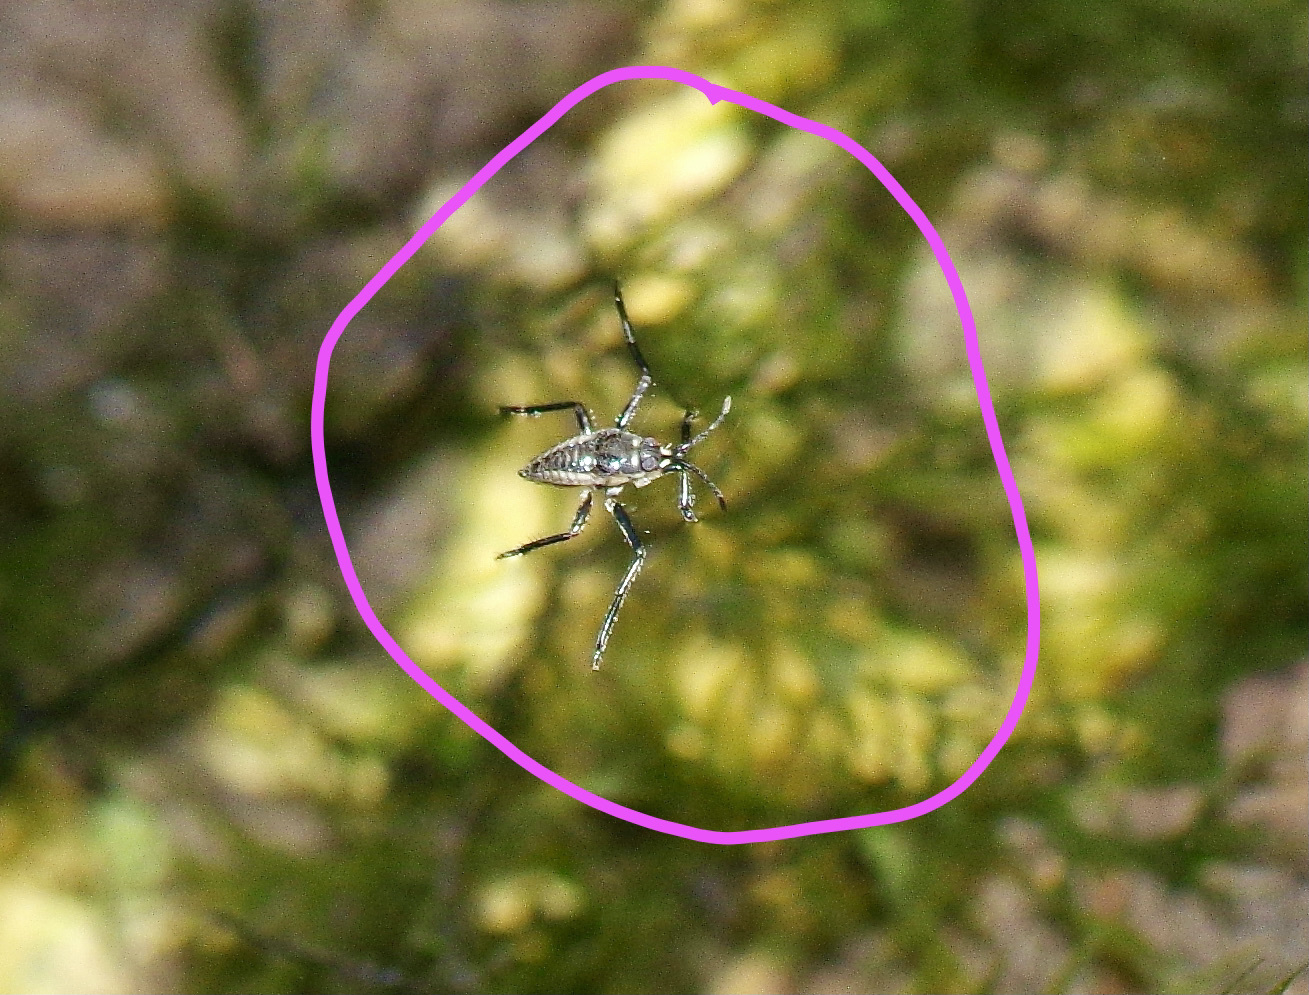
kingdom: Animalia
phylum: Arthropoda
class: Insecta
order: Hemiptera
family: Veliidae
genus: Rhagovelia
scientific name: Rhagovelia
